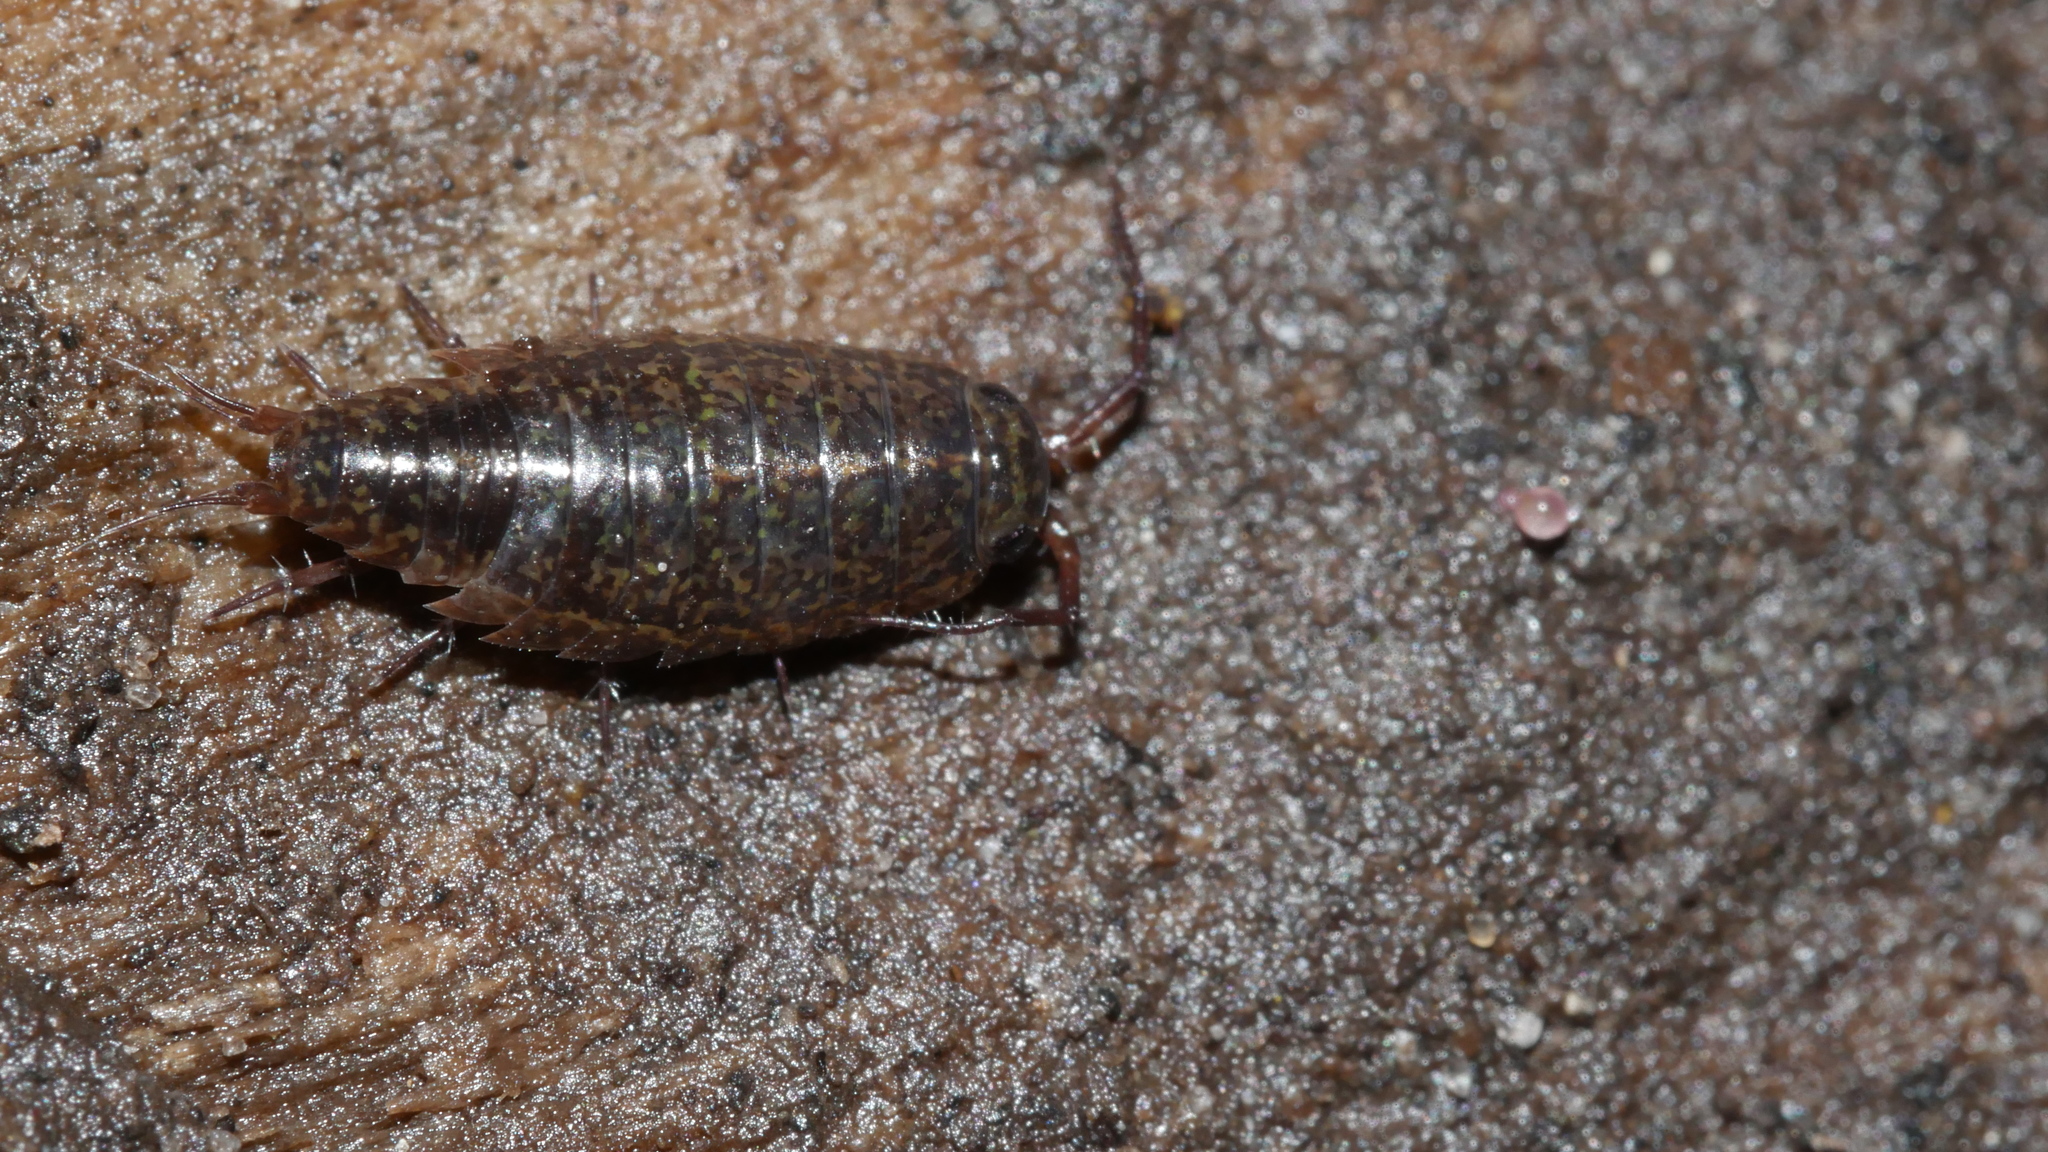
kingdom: Animalia
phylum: Arthropoda
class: Malacostraca
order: Isopoda
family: Ligiidae
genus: Ligidium
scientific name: Ligidium elrodii
